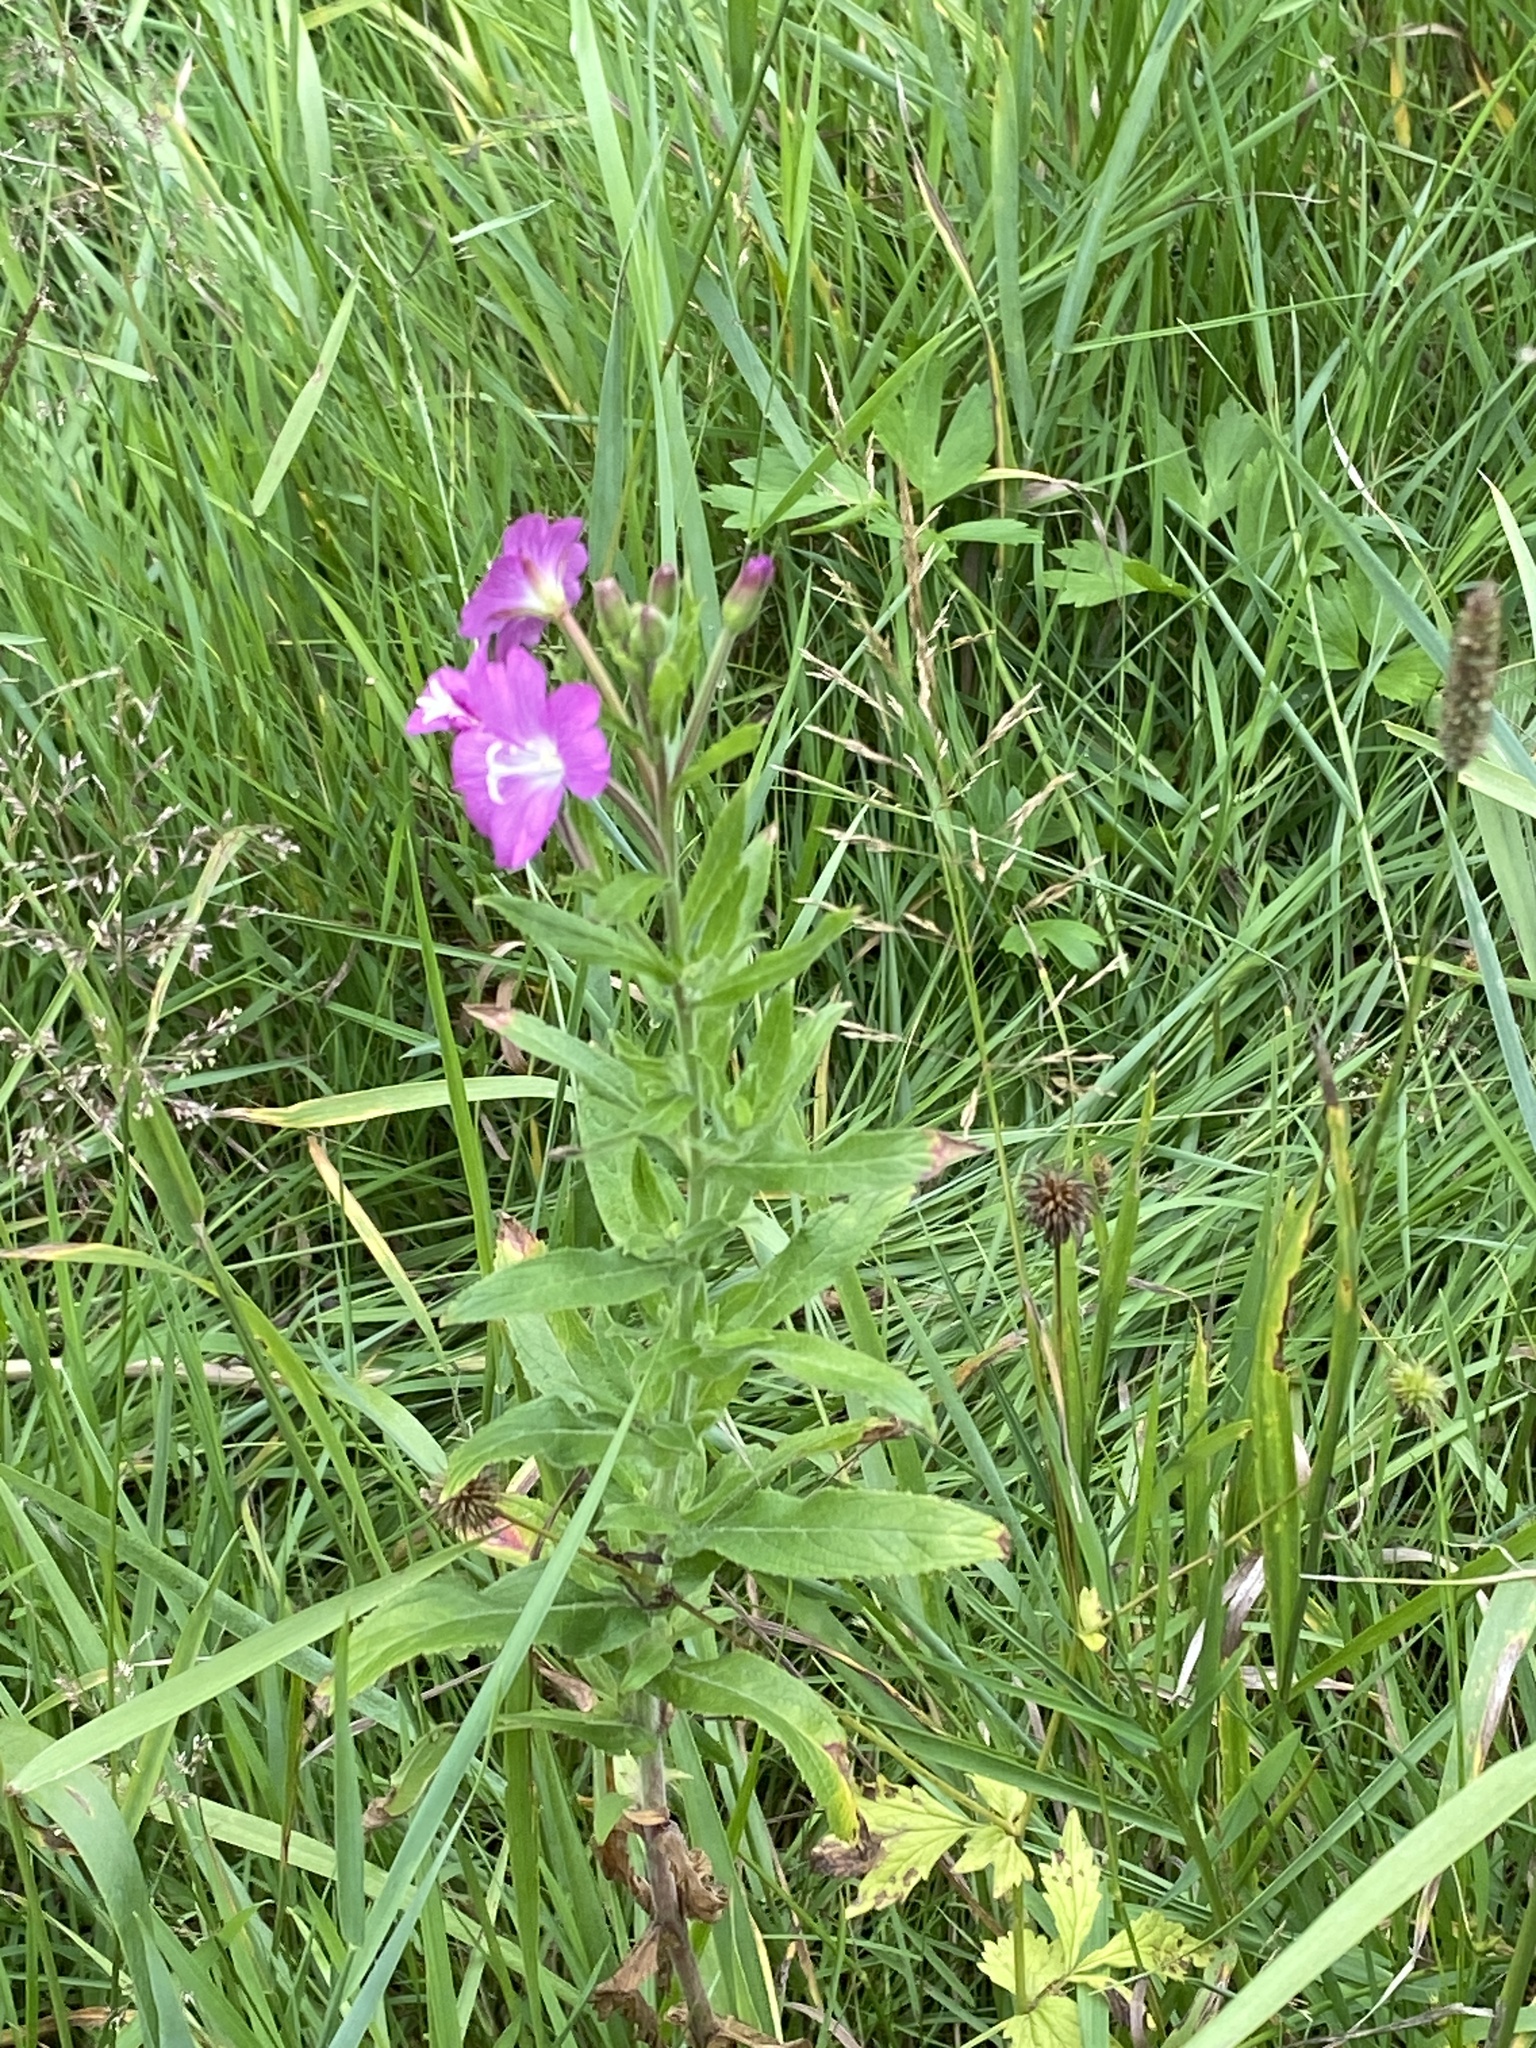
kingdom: Plantae
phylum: Tracheophyta
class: Magnoliopsida
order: Myrtales
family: Onagraceae
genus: Epilobium
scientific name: Epilobium hirsutum
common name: Great willowherb
